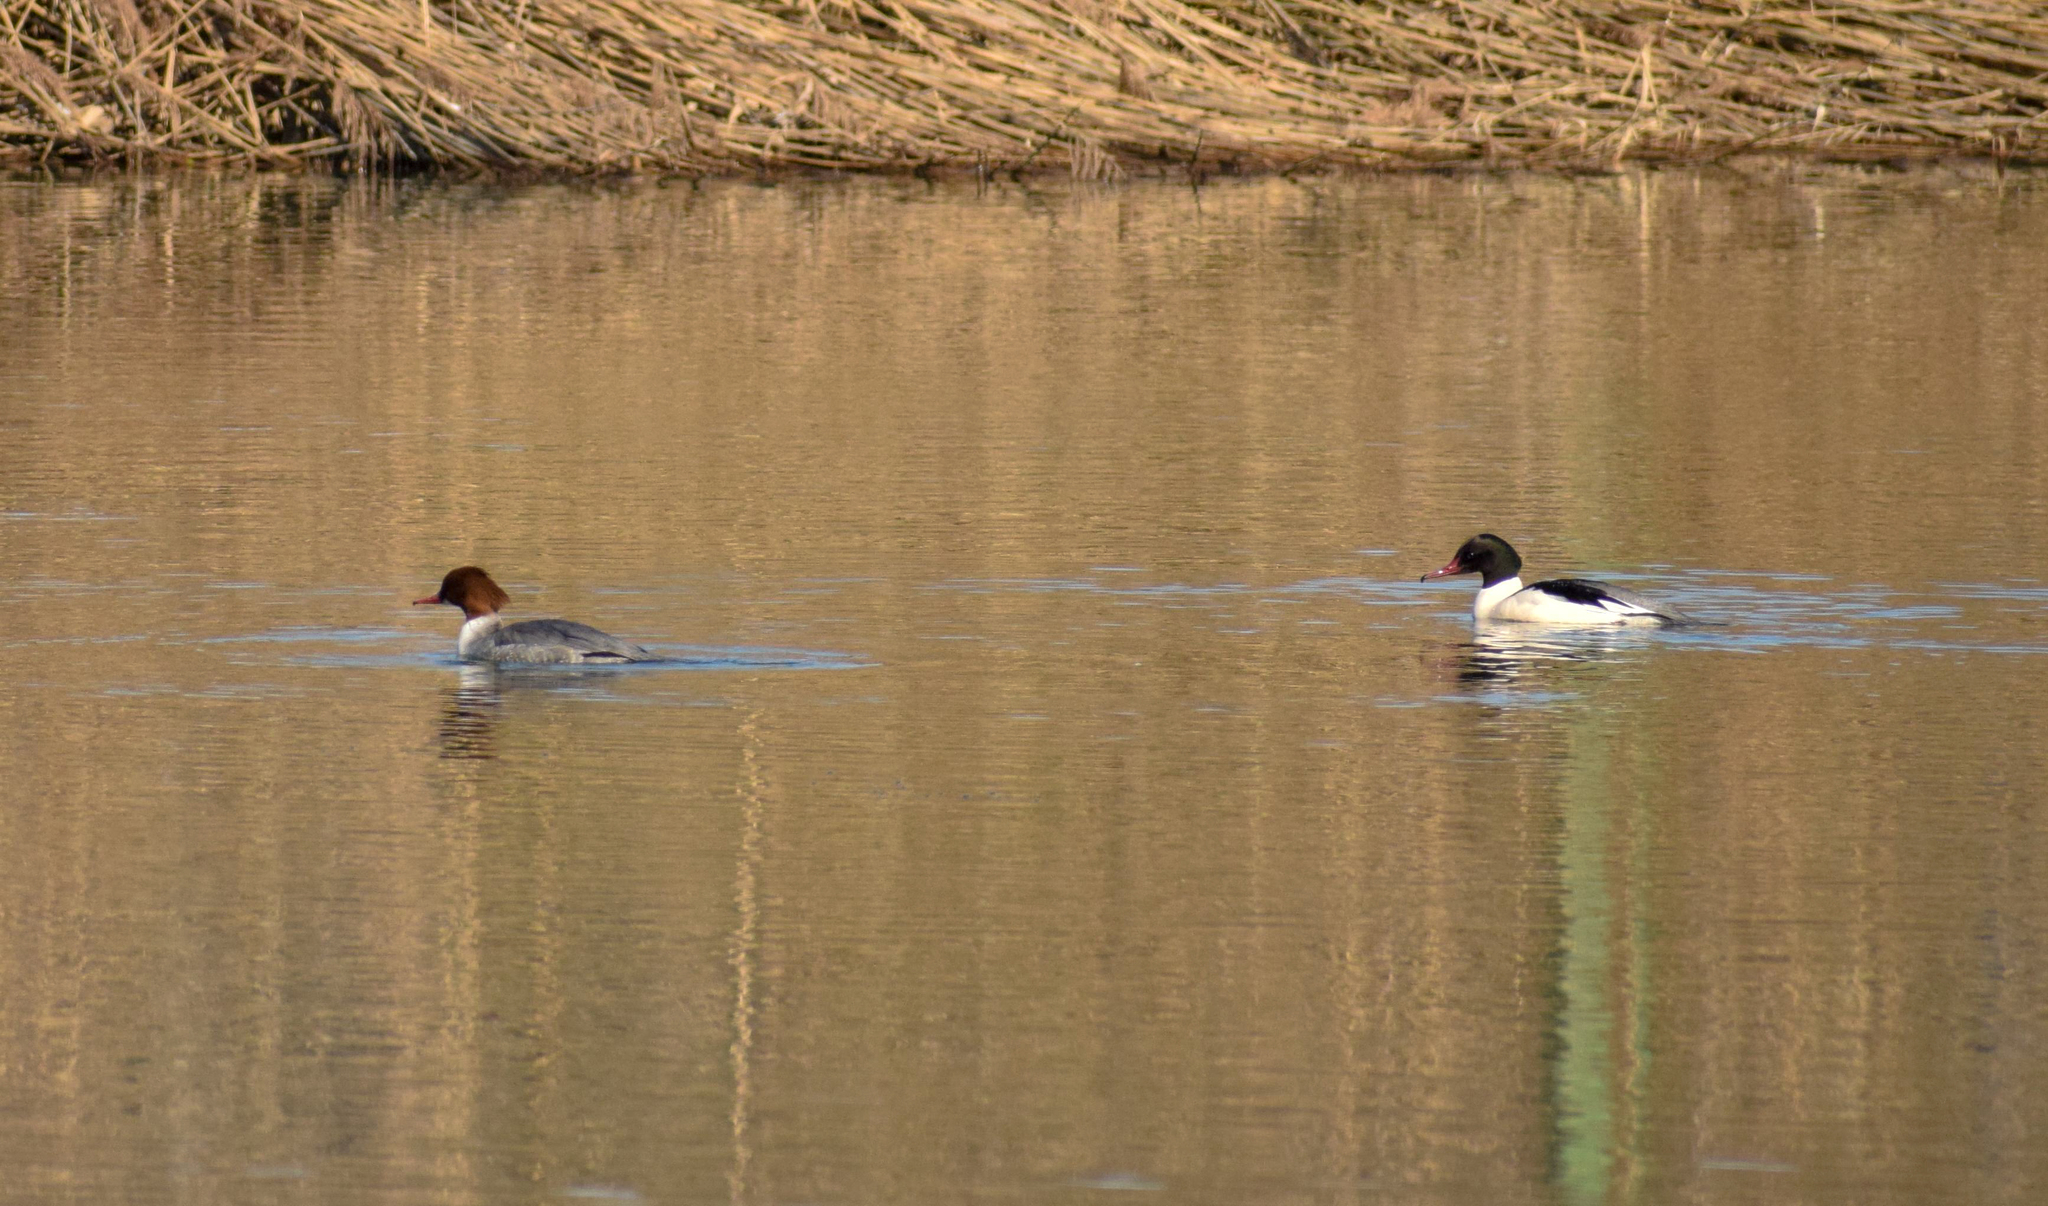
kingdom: Animalia
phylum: Chordata
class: Aves
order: Anseriformes
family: Anatidae
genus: Mergus
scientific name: Mergus merganser
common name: Common merganser
